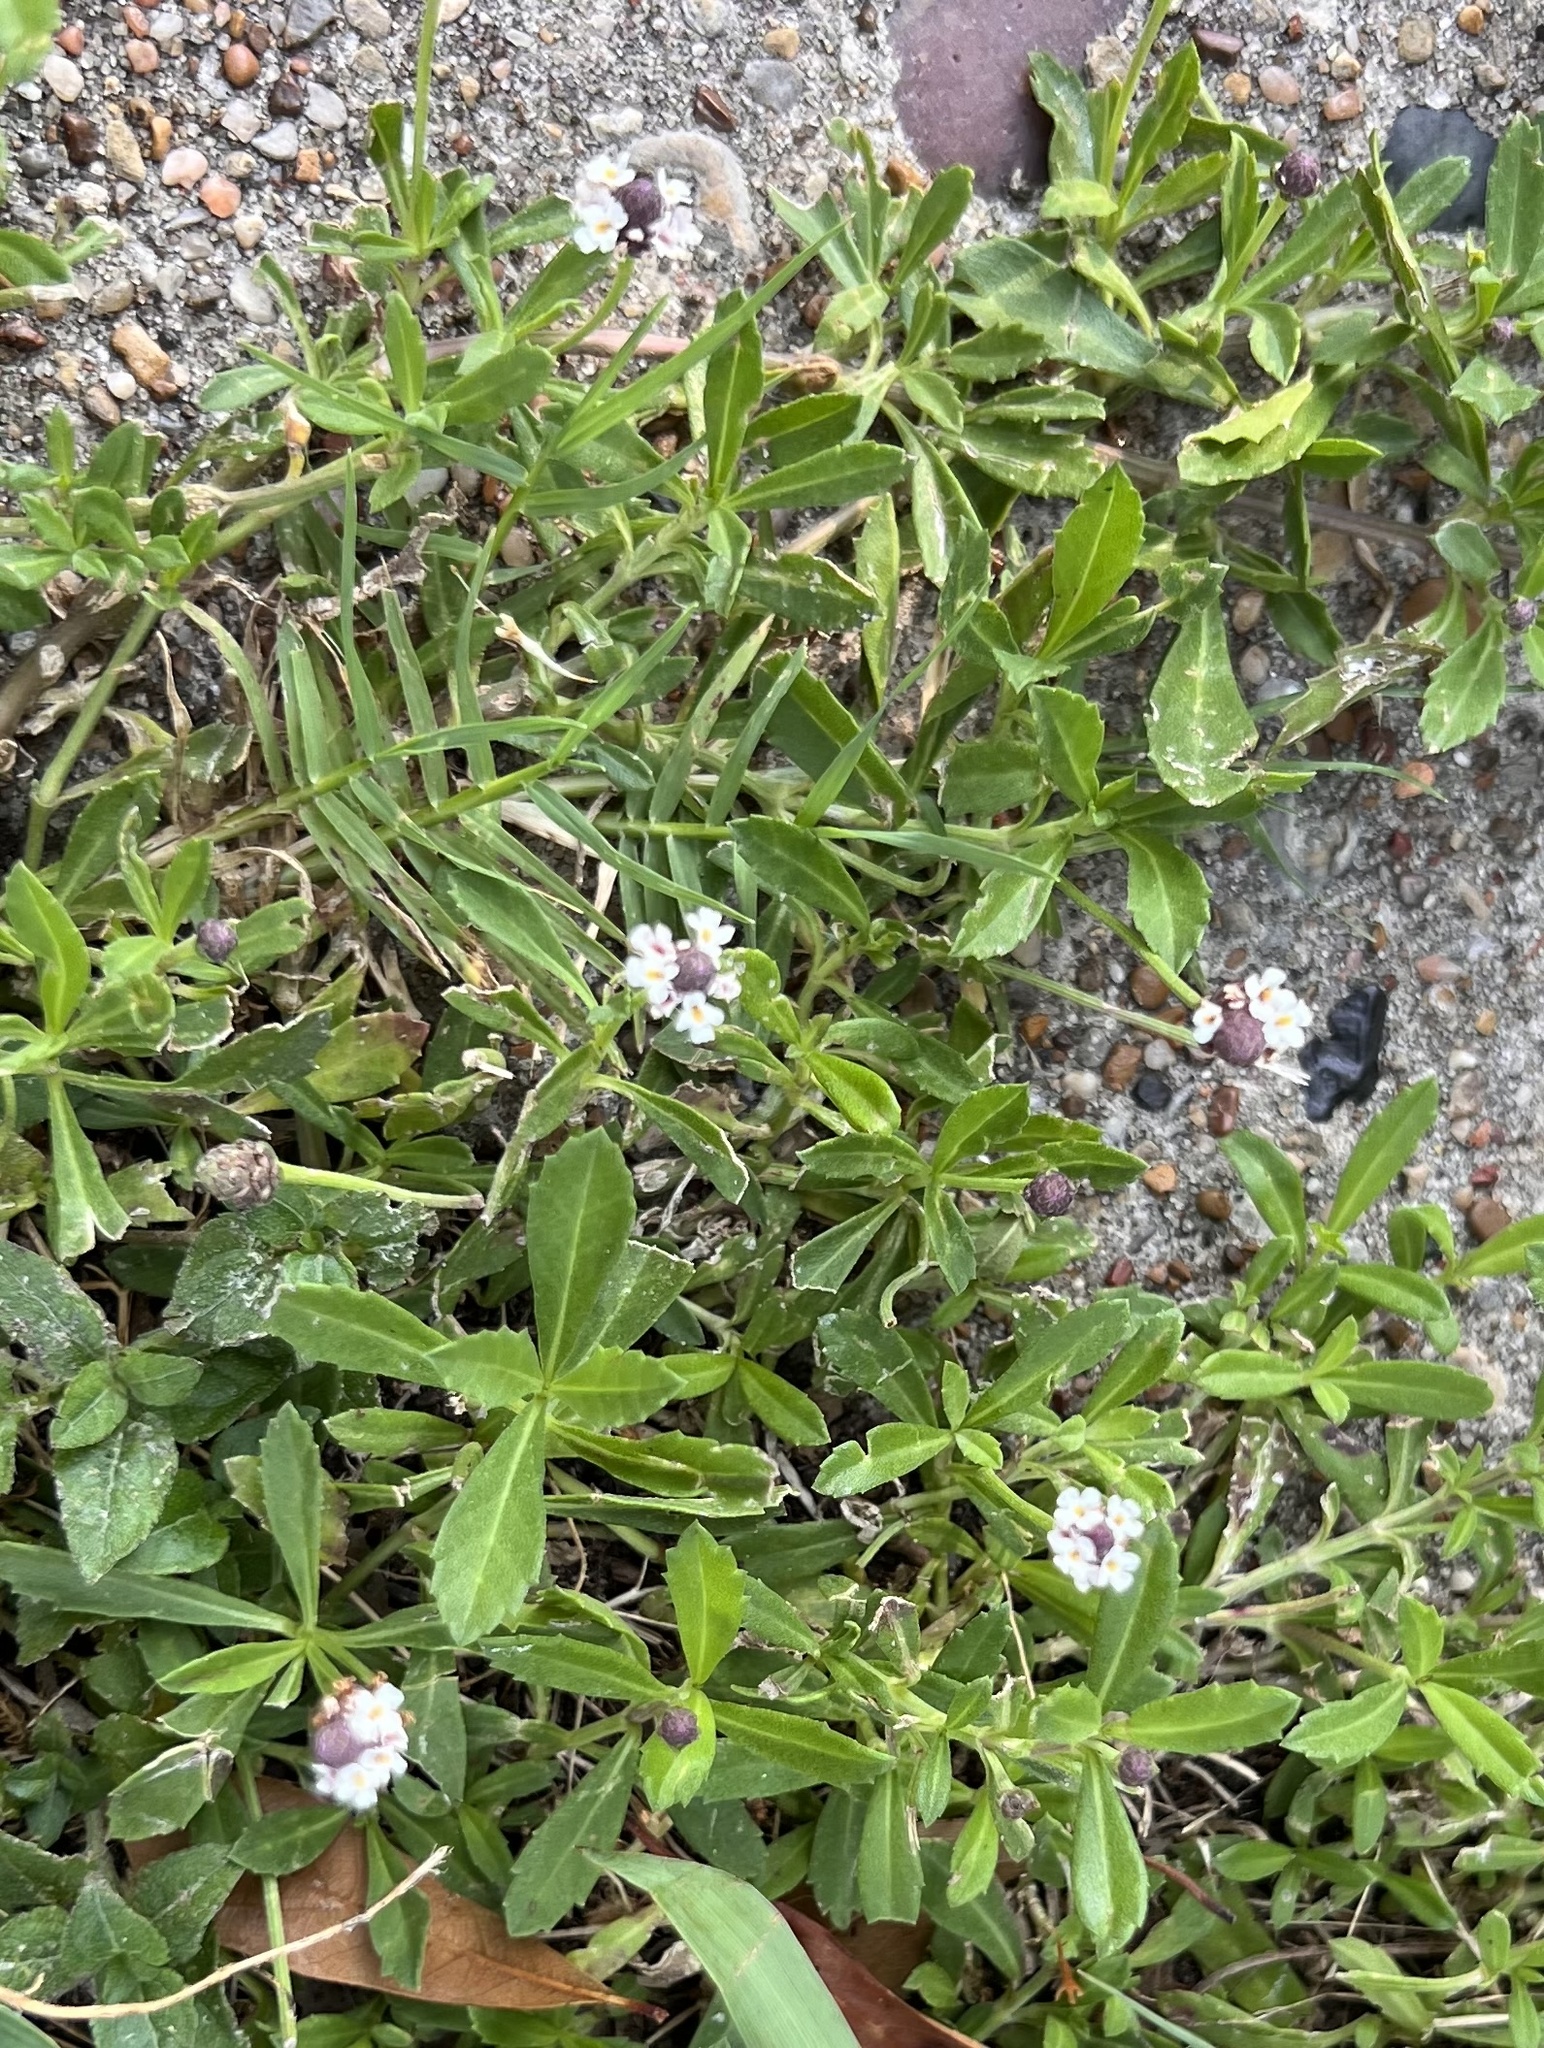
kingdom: Plantae
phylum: Tracheophyta
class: Magnoliopsida
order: Lamiales
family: Verbenaceae
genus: Phyla
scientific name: Phyla nodiflora
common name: Frogfruit
